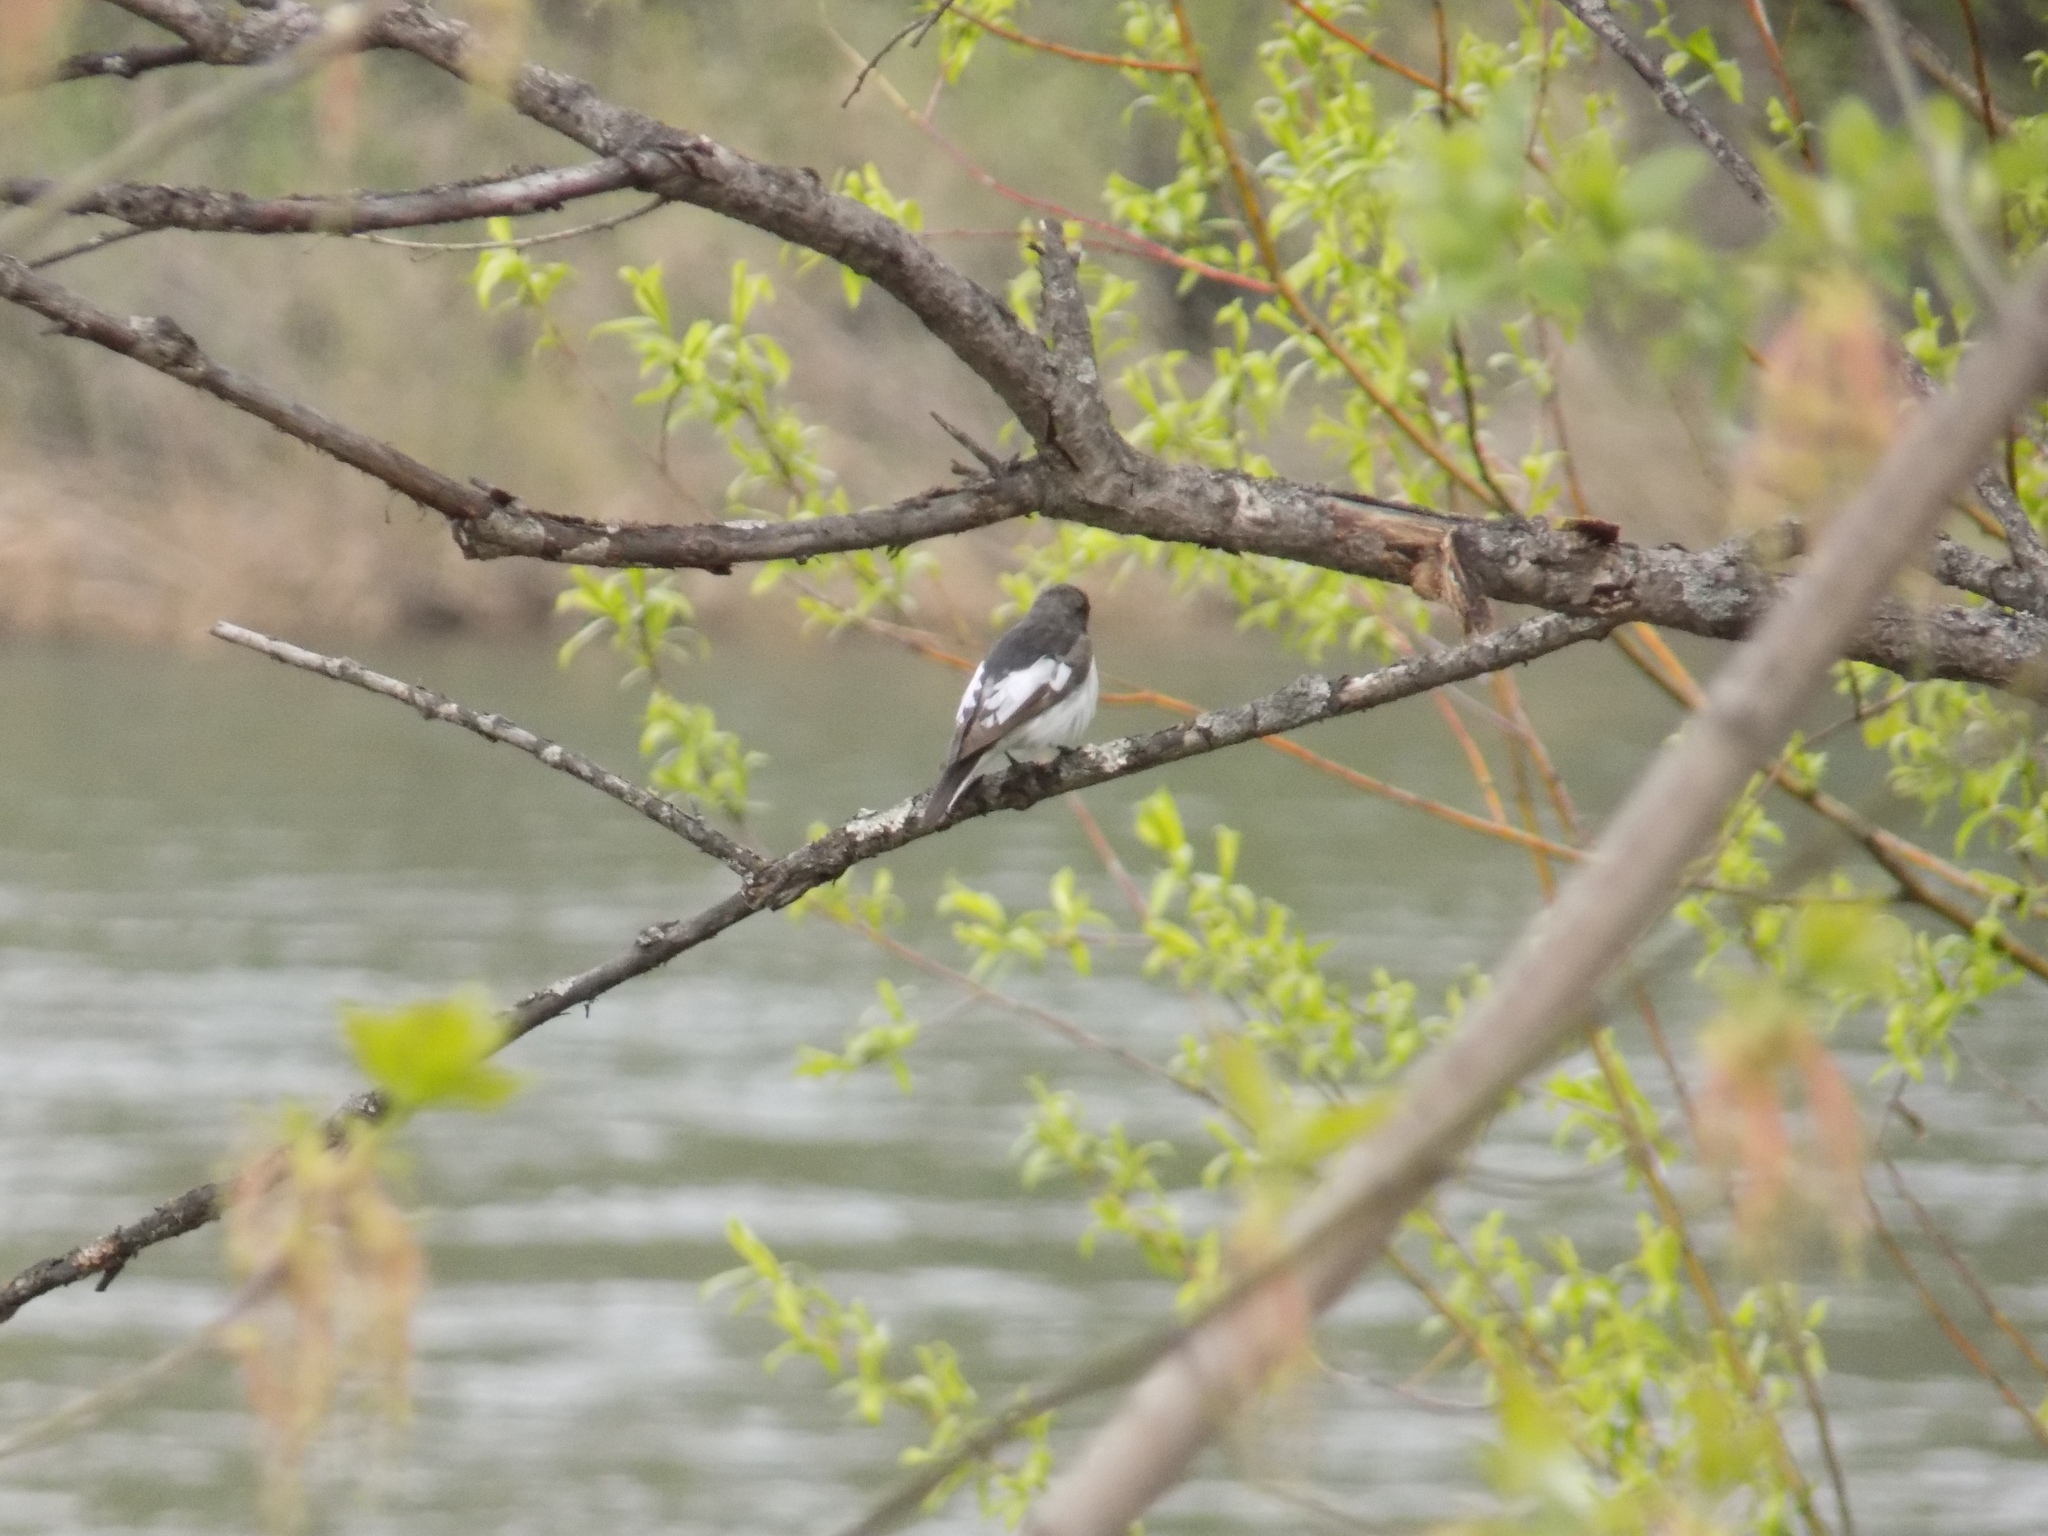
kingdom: Animalia
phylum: Chordata
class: Aves
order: Passeriformes
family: Muscicapidae
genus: Ficedula
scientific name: Ficedula hypoleuca
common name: European pied flycatcher
